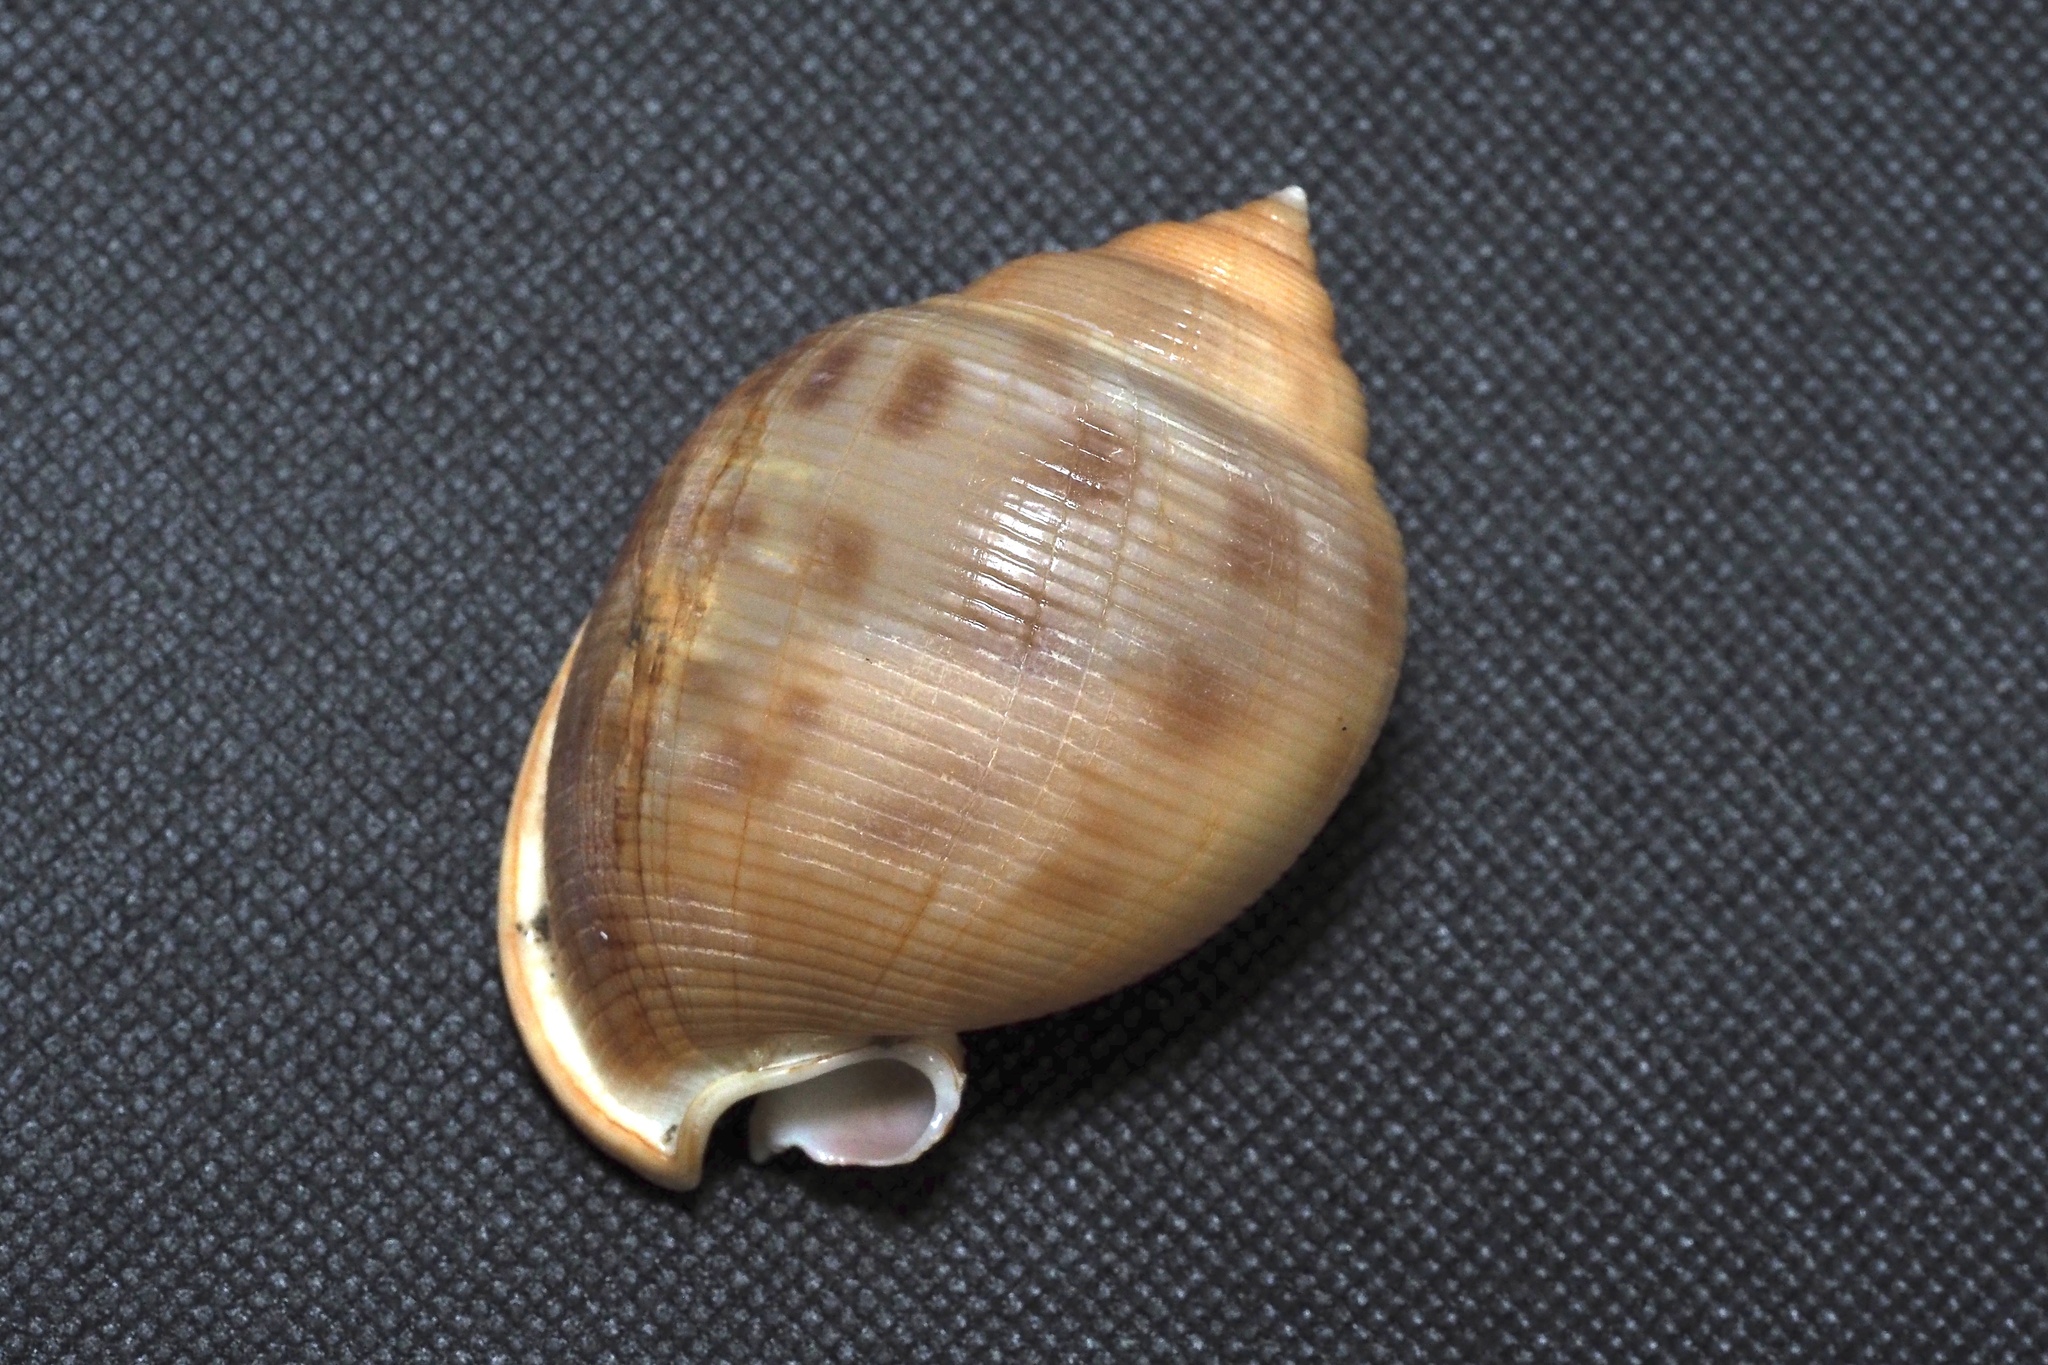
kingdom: Animalia
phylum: Mollusca
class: Gastropoda
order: Littorinimorpha
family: Cassidae
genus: Semicassis
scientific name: Semicassis bisulcata
